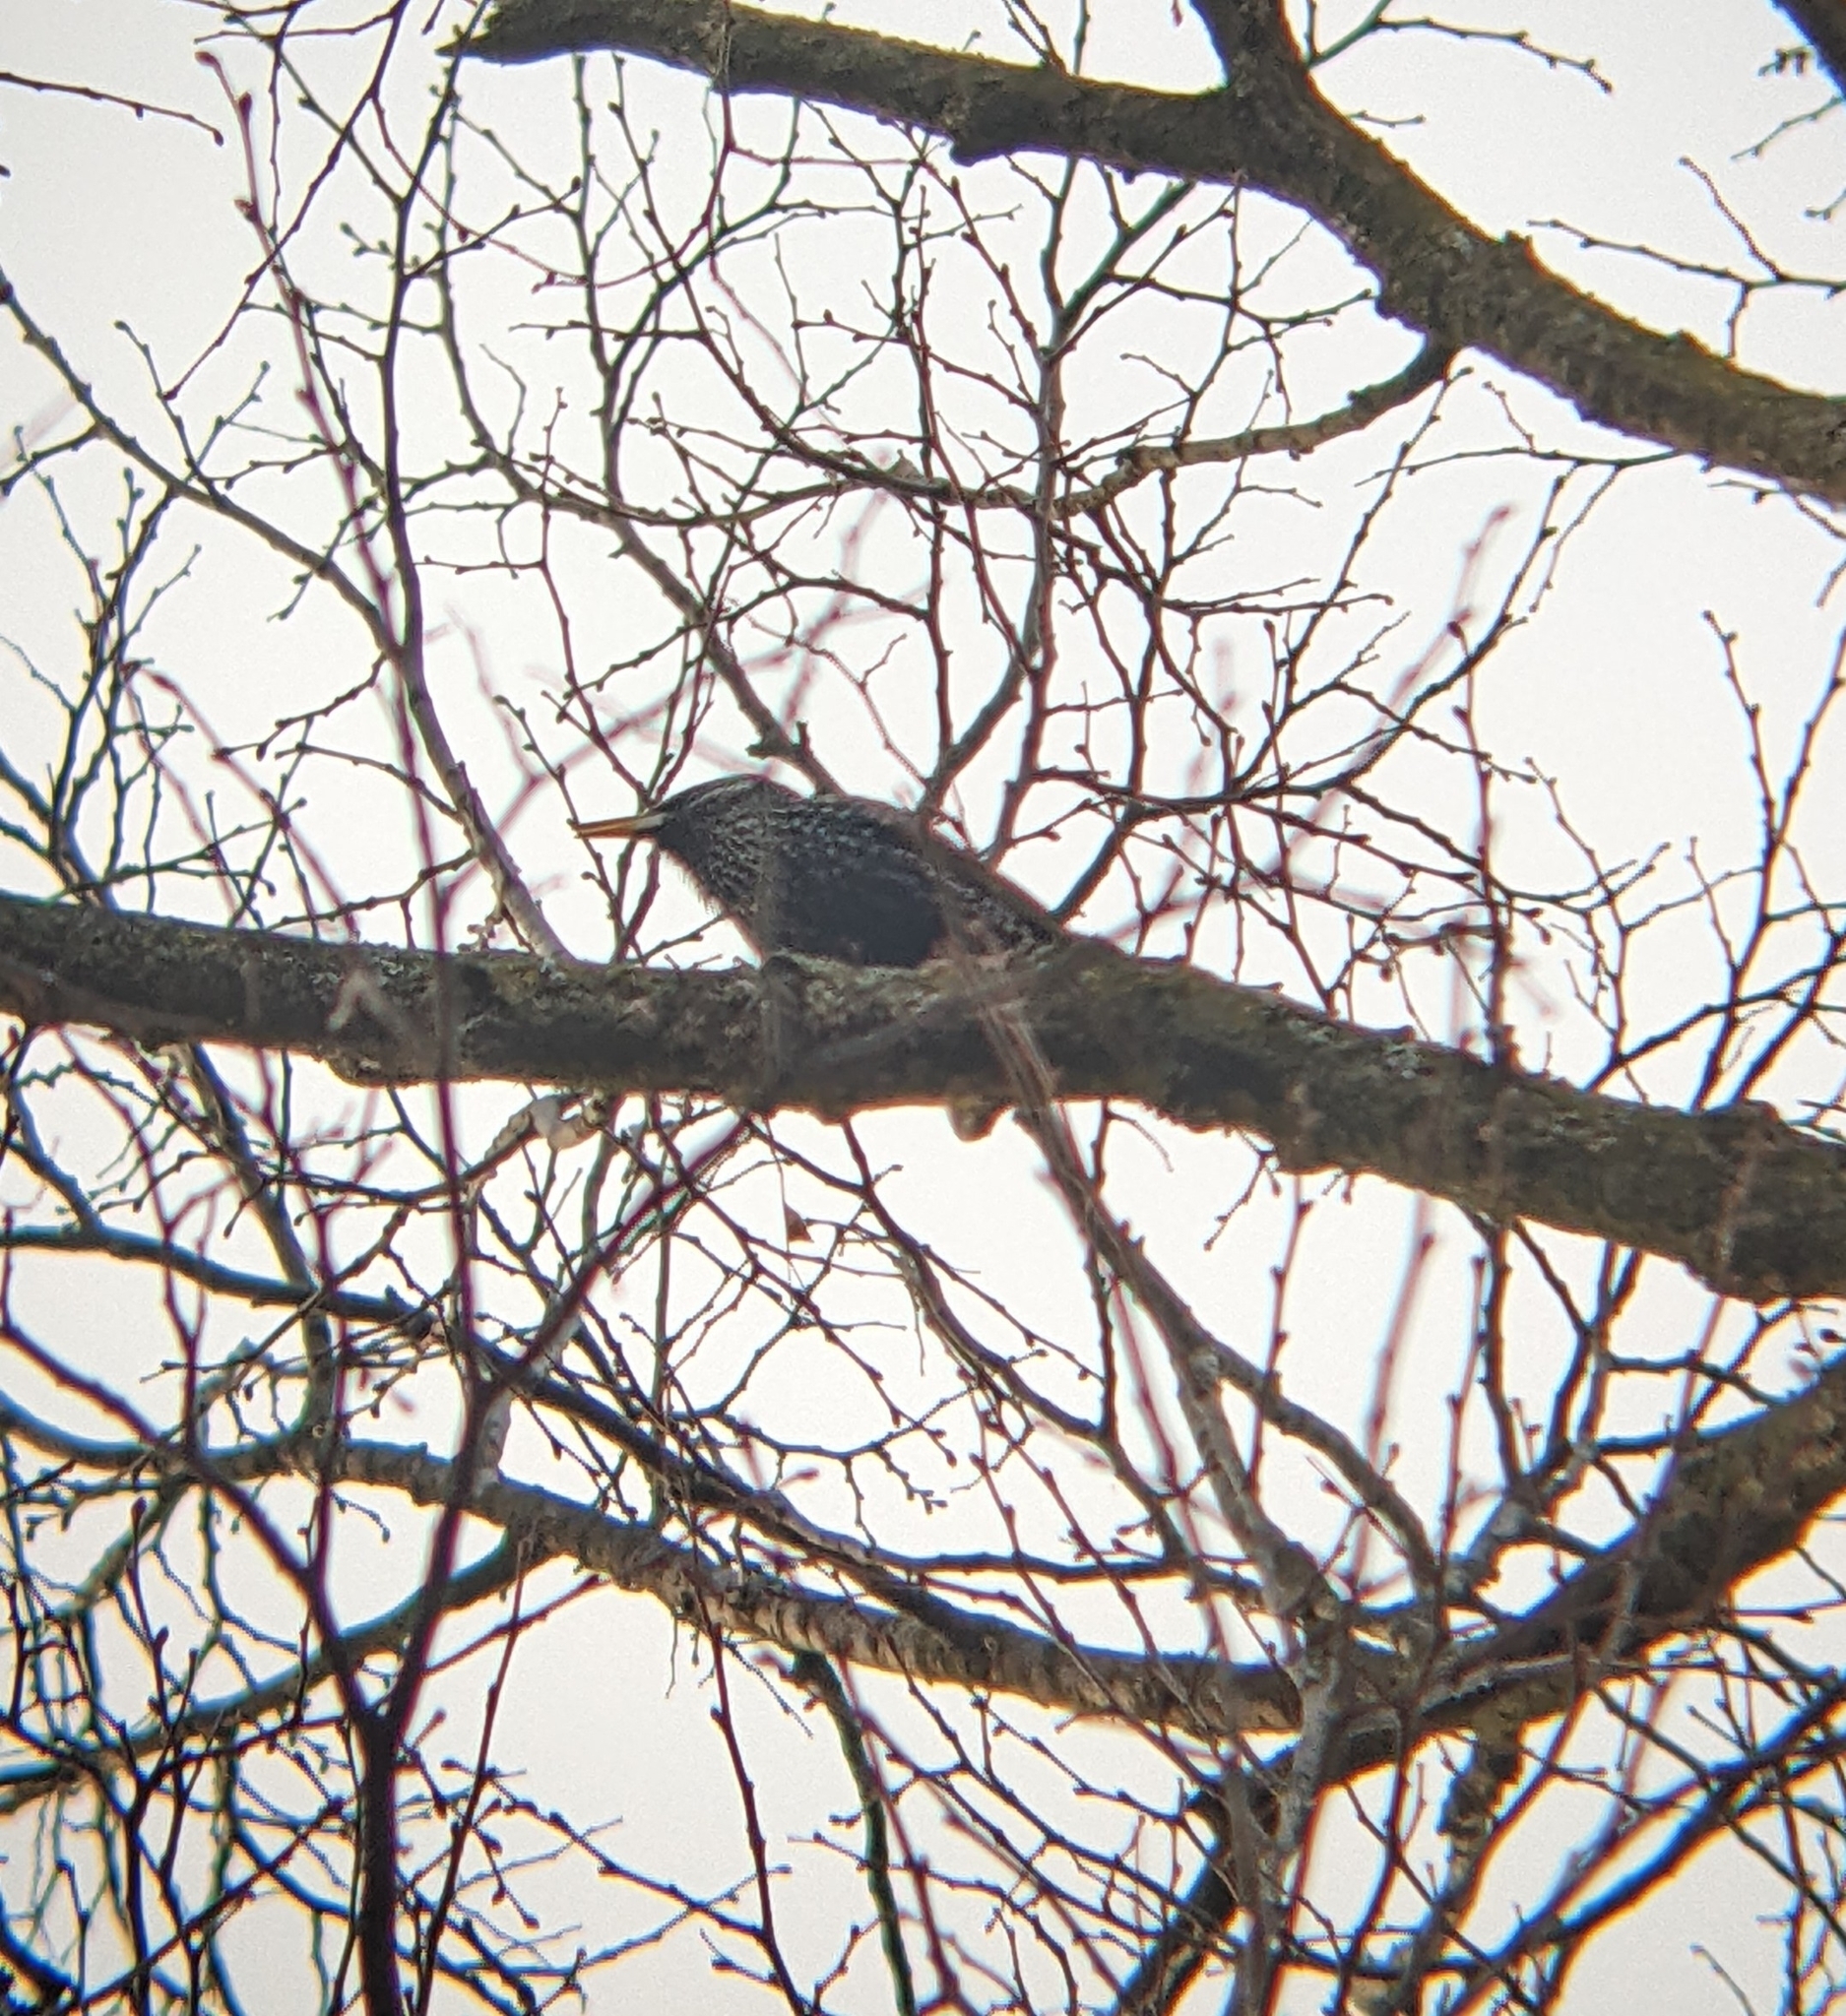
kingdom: Animalia
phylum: Chordata
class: Aves
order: Passeriformes
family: Sturnidae
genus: Sturnus
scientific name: Sturnus vulgaris
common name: Common starling
